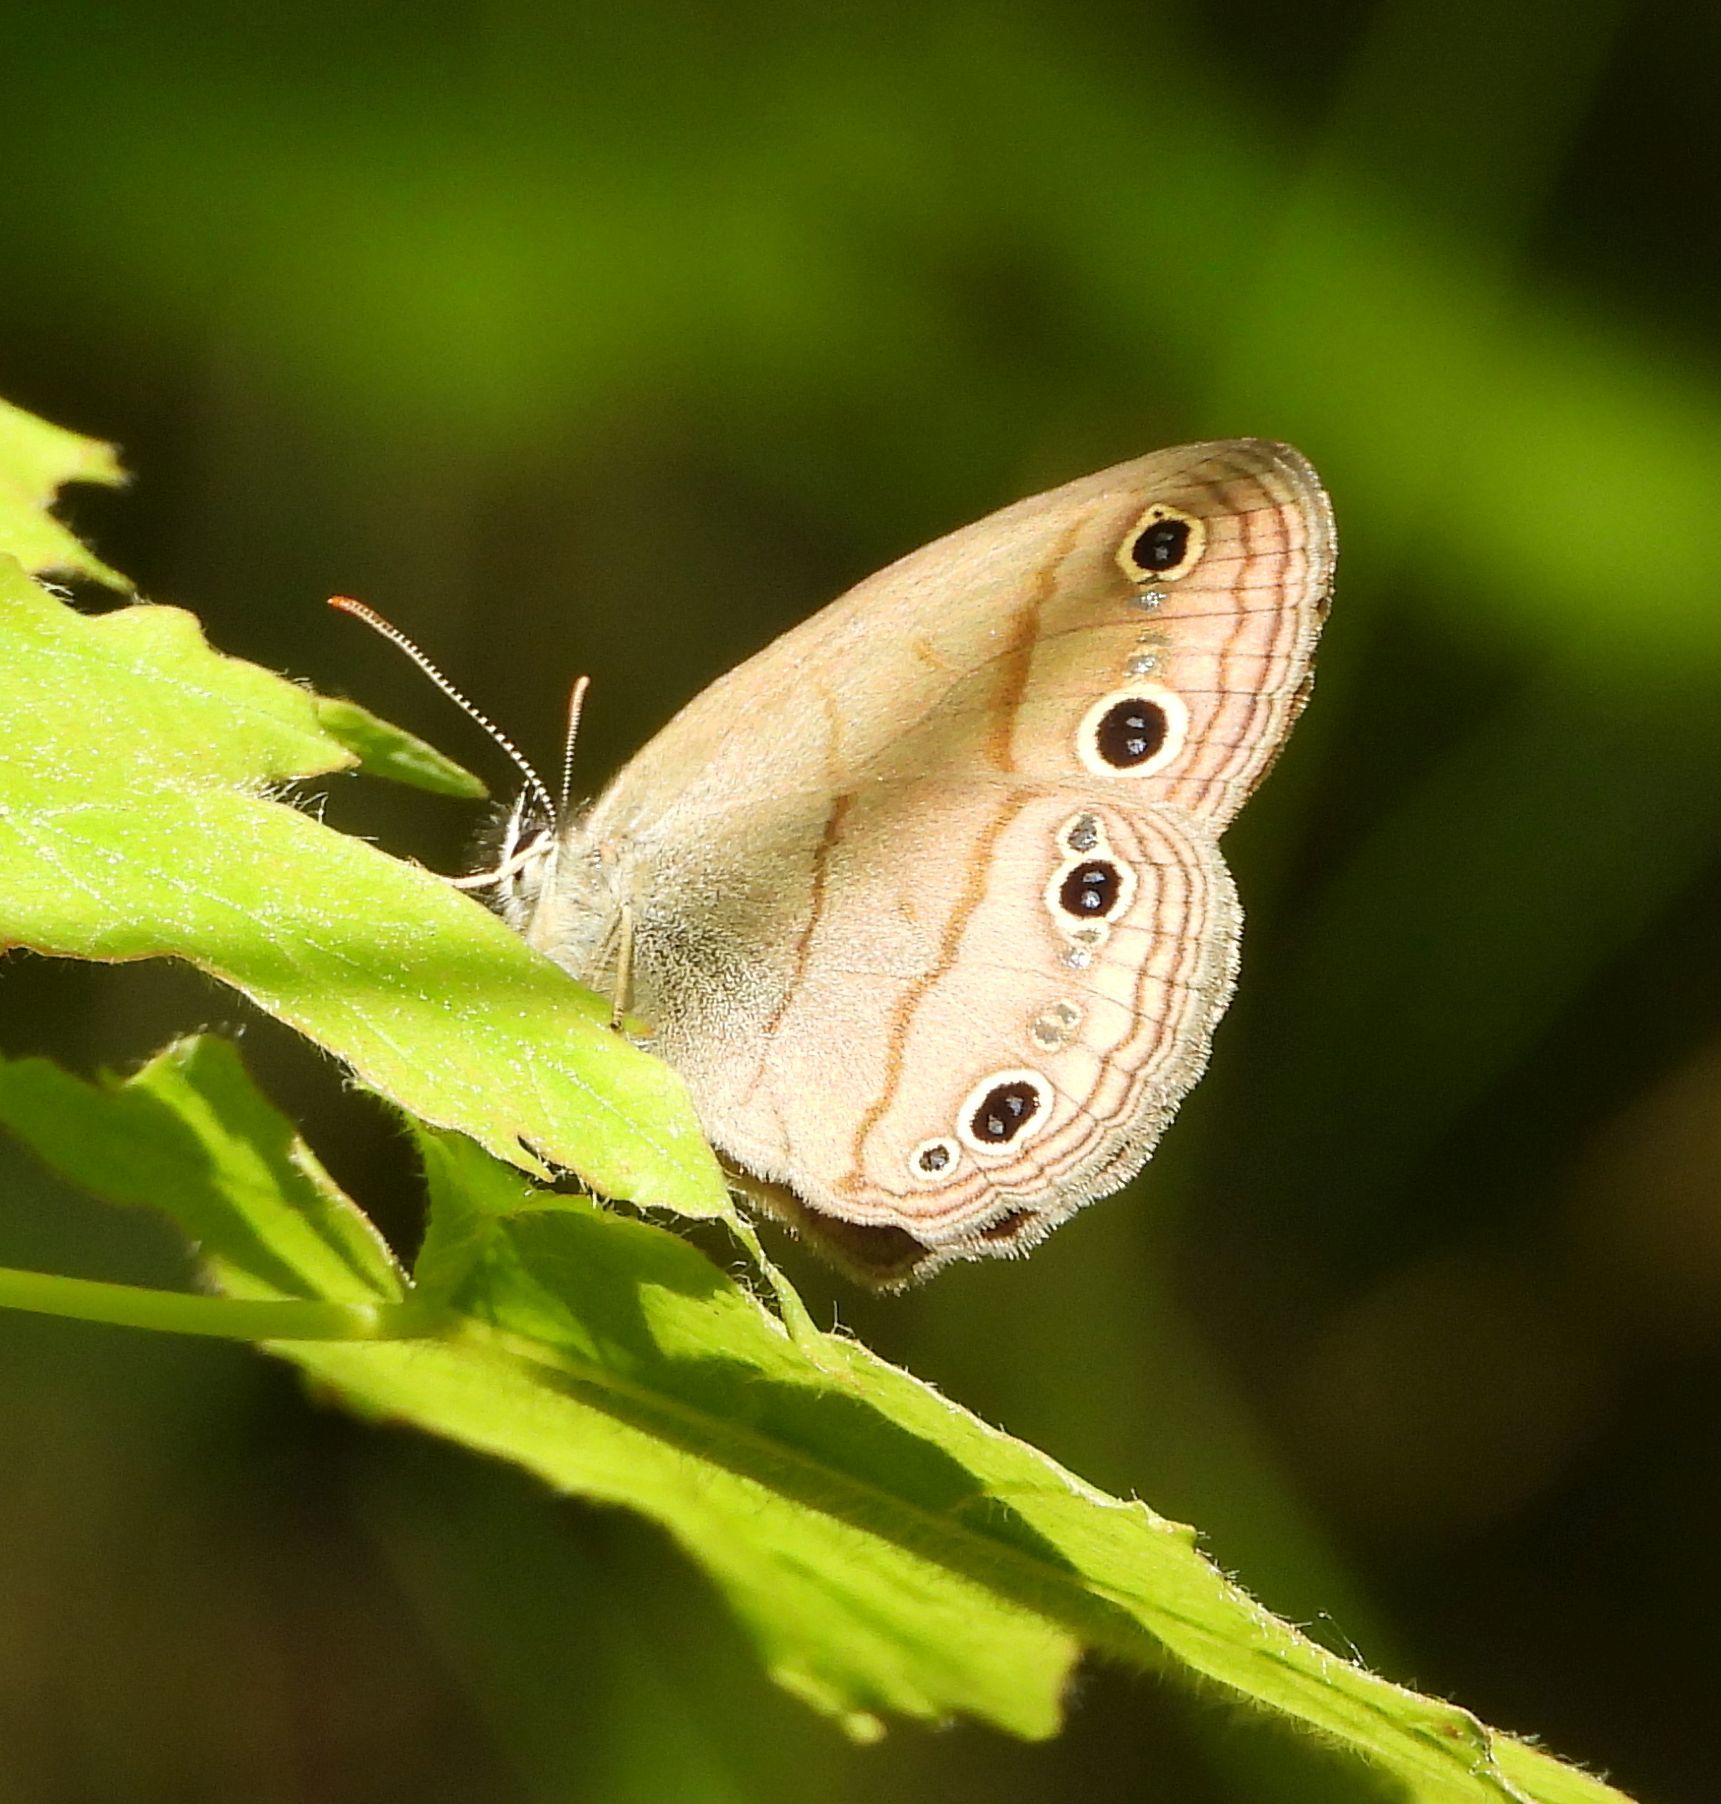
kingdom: Animalia
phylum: Arthropoda
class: Insecta
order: Lepidoptera
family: Nymphalidae
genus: Euptychia
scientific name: Euptychia cymela
